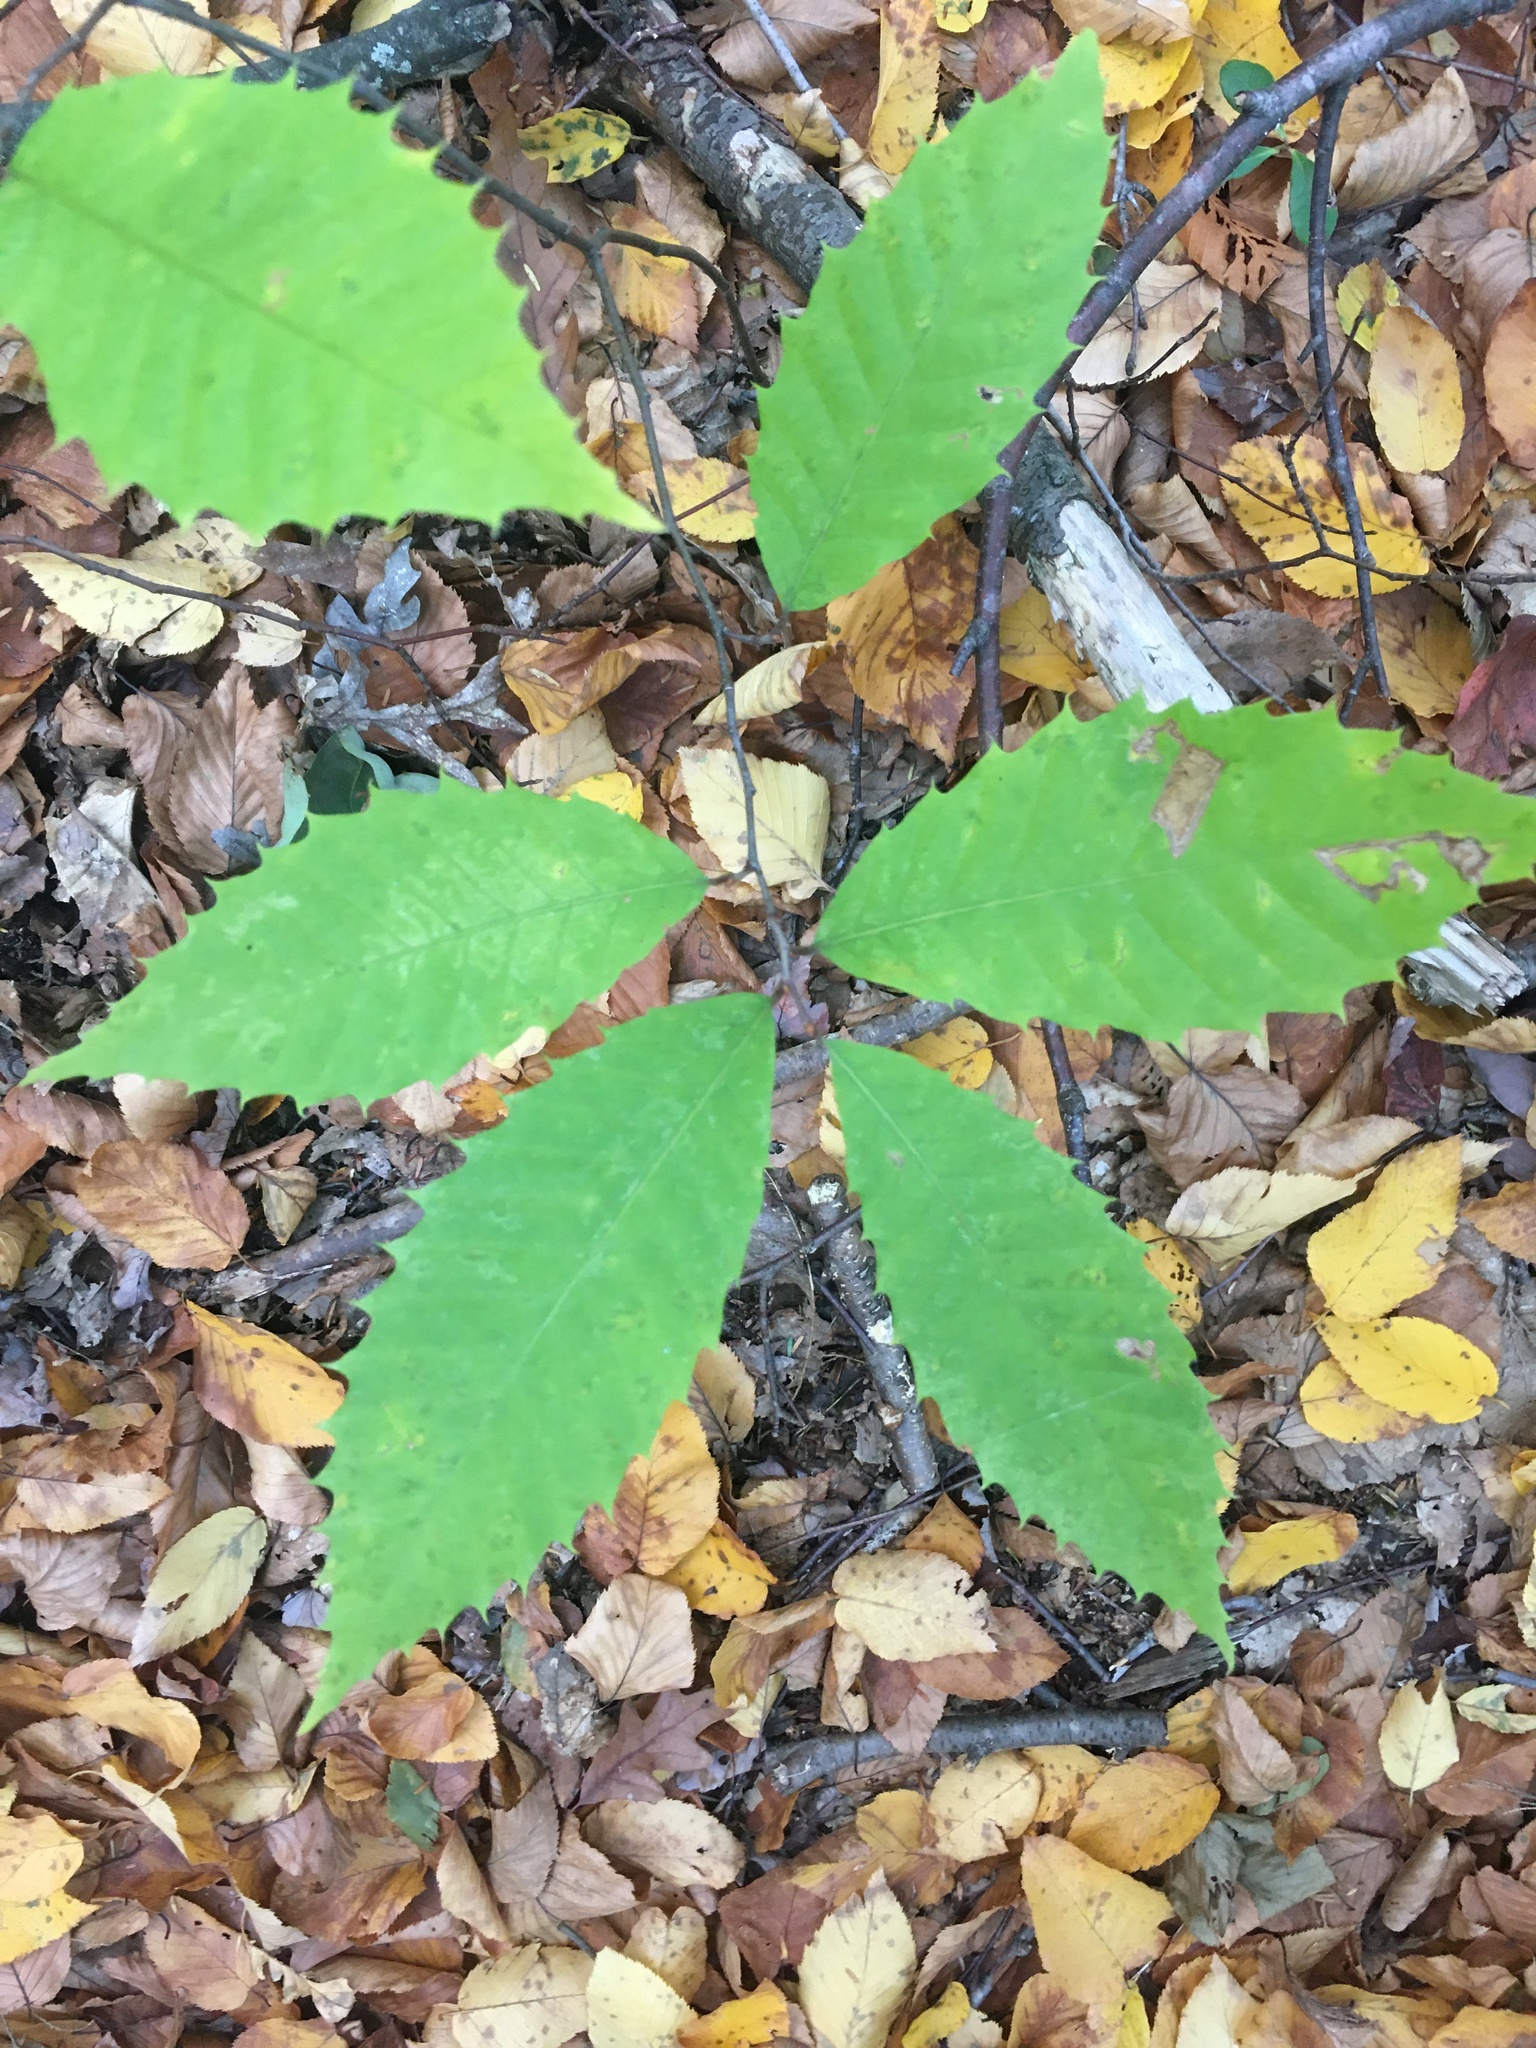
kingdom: Plantae
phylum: Tracheophyta
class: Magnoliopsida
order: Fagales
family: Fagaceae
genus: Castanea
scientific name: Castanea dentata
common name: American chestnut
